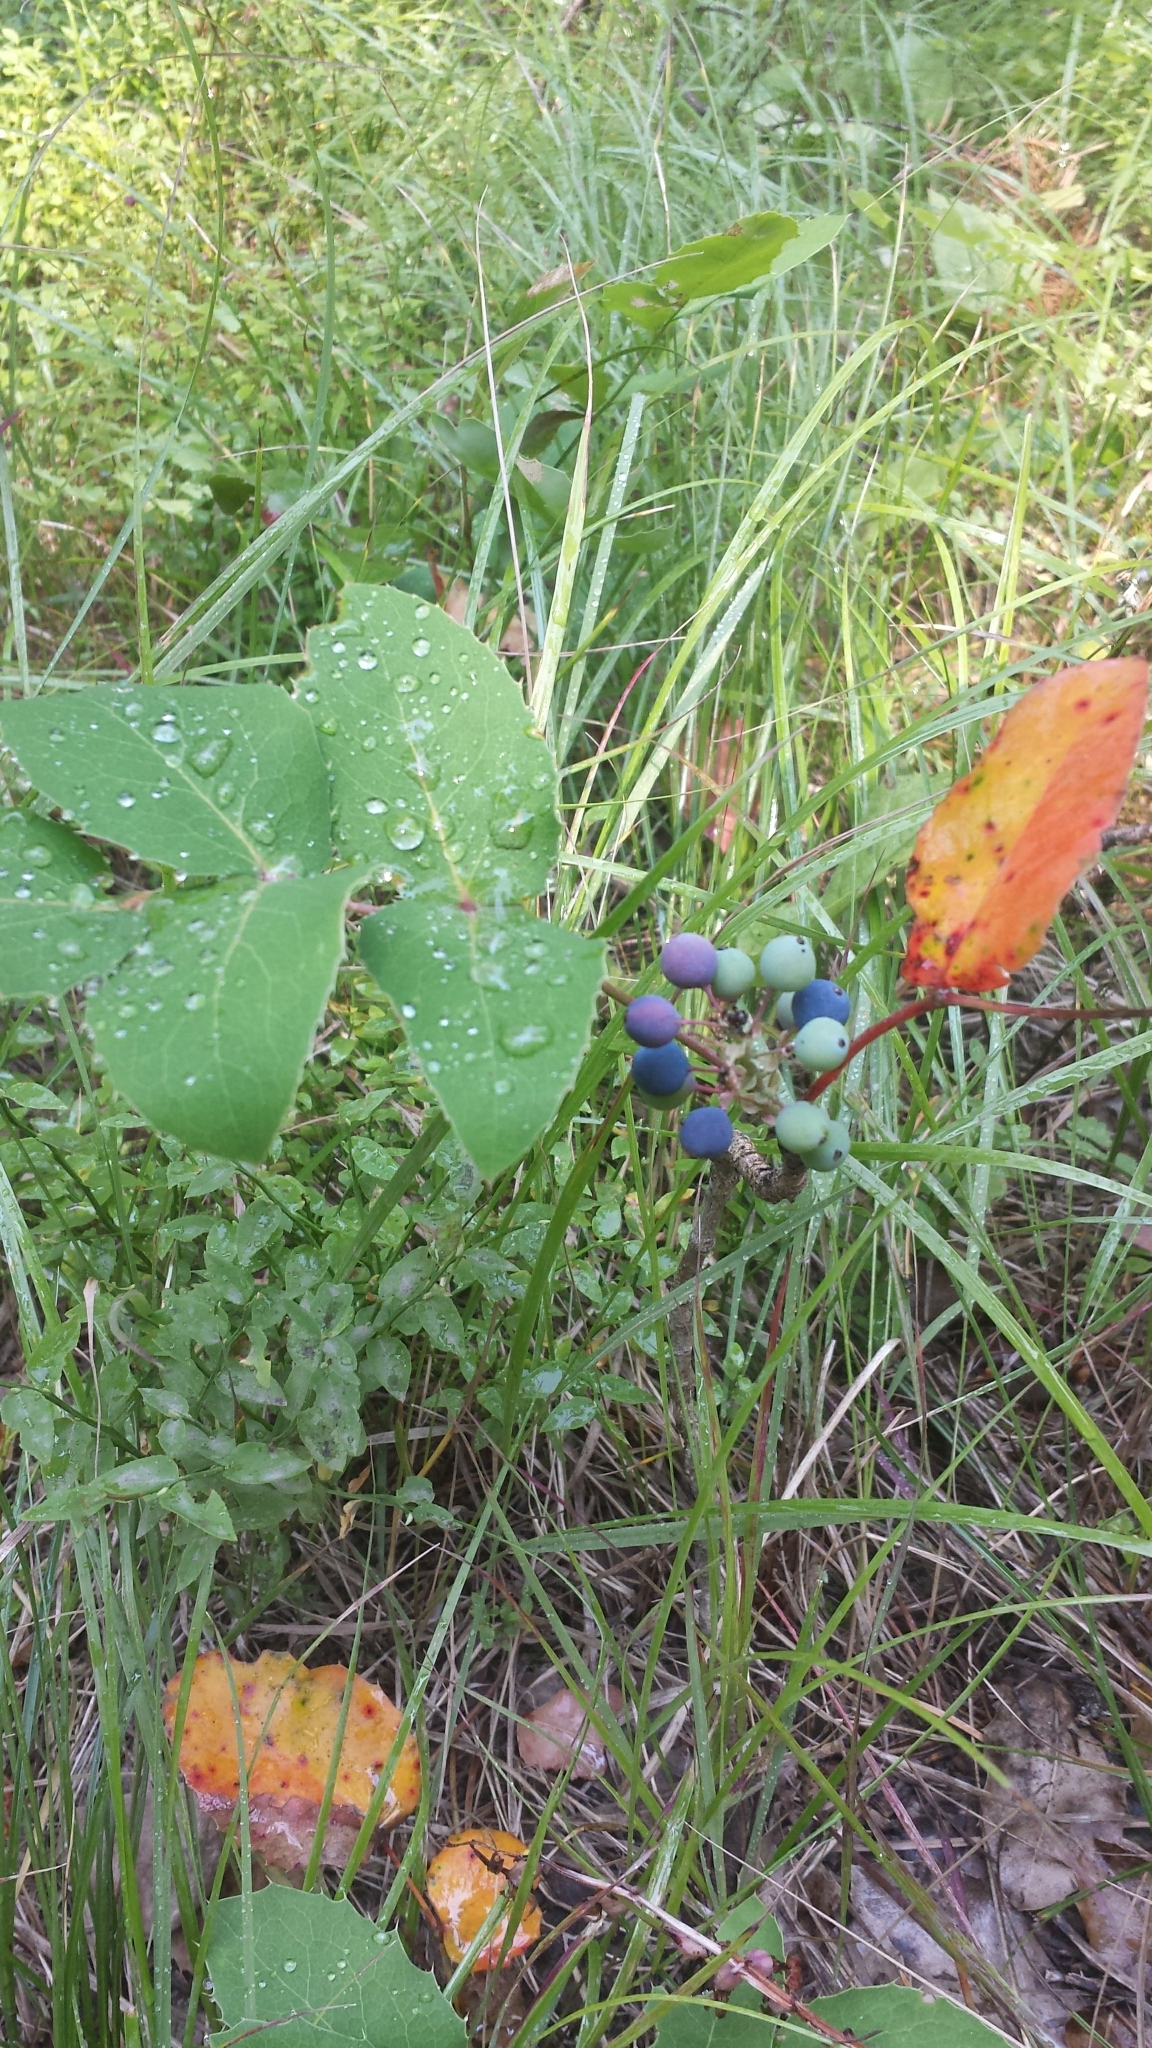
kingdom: Plantae
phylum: Tracheophyta
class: Magnoliopsida
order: Ranunculales
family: Berberidaceae
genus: Mahonia
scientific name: Mahonia repens
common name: Creeping oregon-grape
